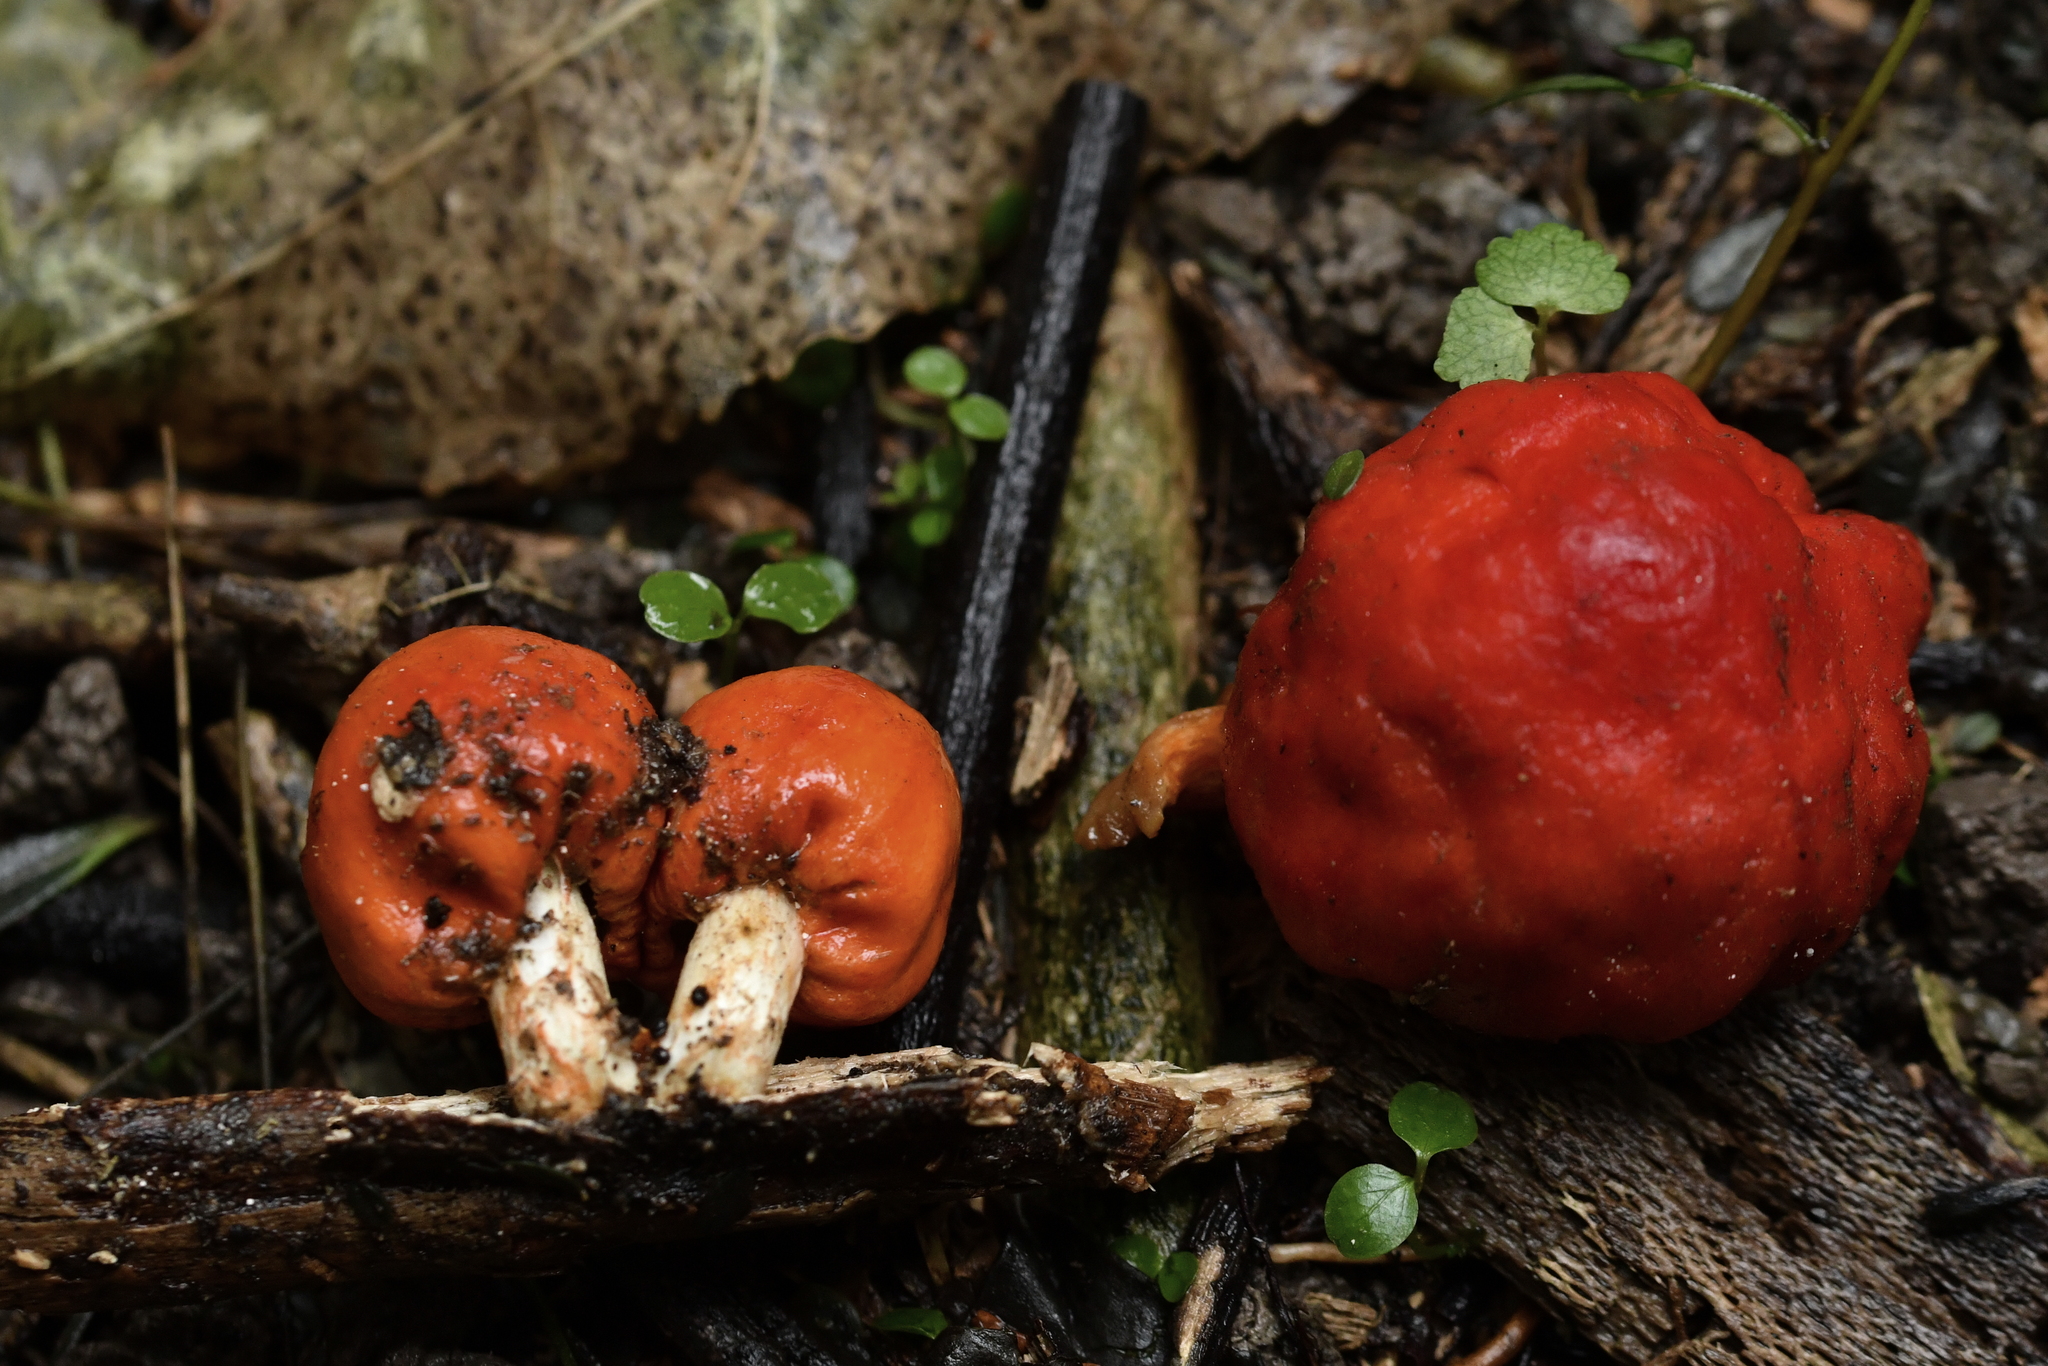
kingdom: Fungi
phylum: Basidiomycota
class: Agaricomycetes
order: Agaricales
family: Strophariaceae
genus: Leratiomyces
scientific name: Leratiomyces erythrocephalus
